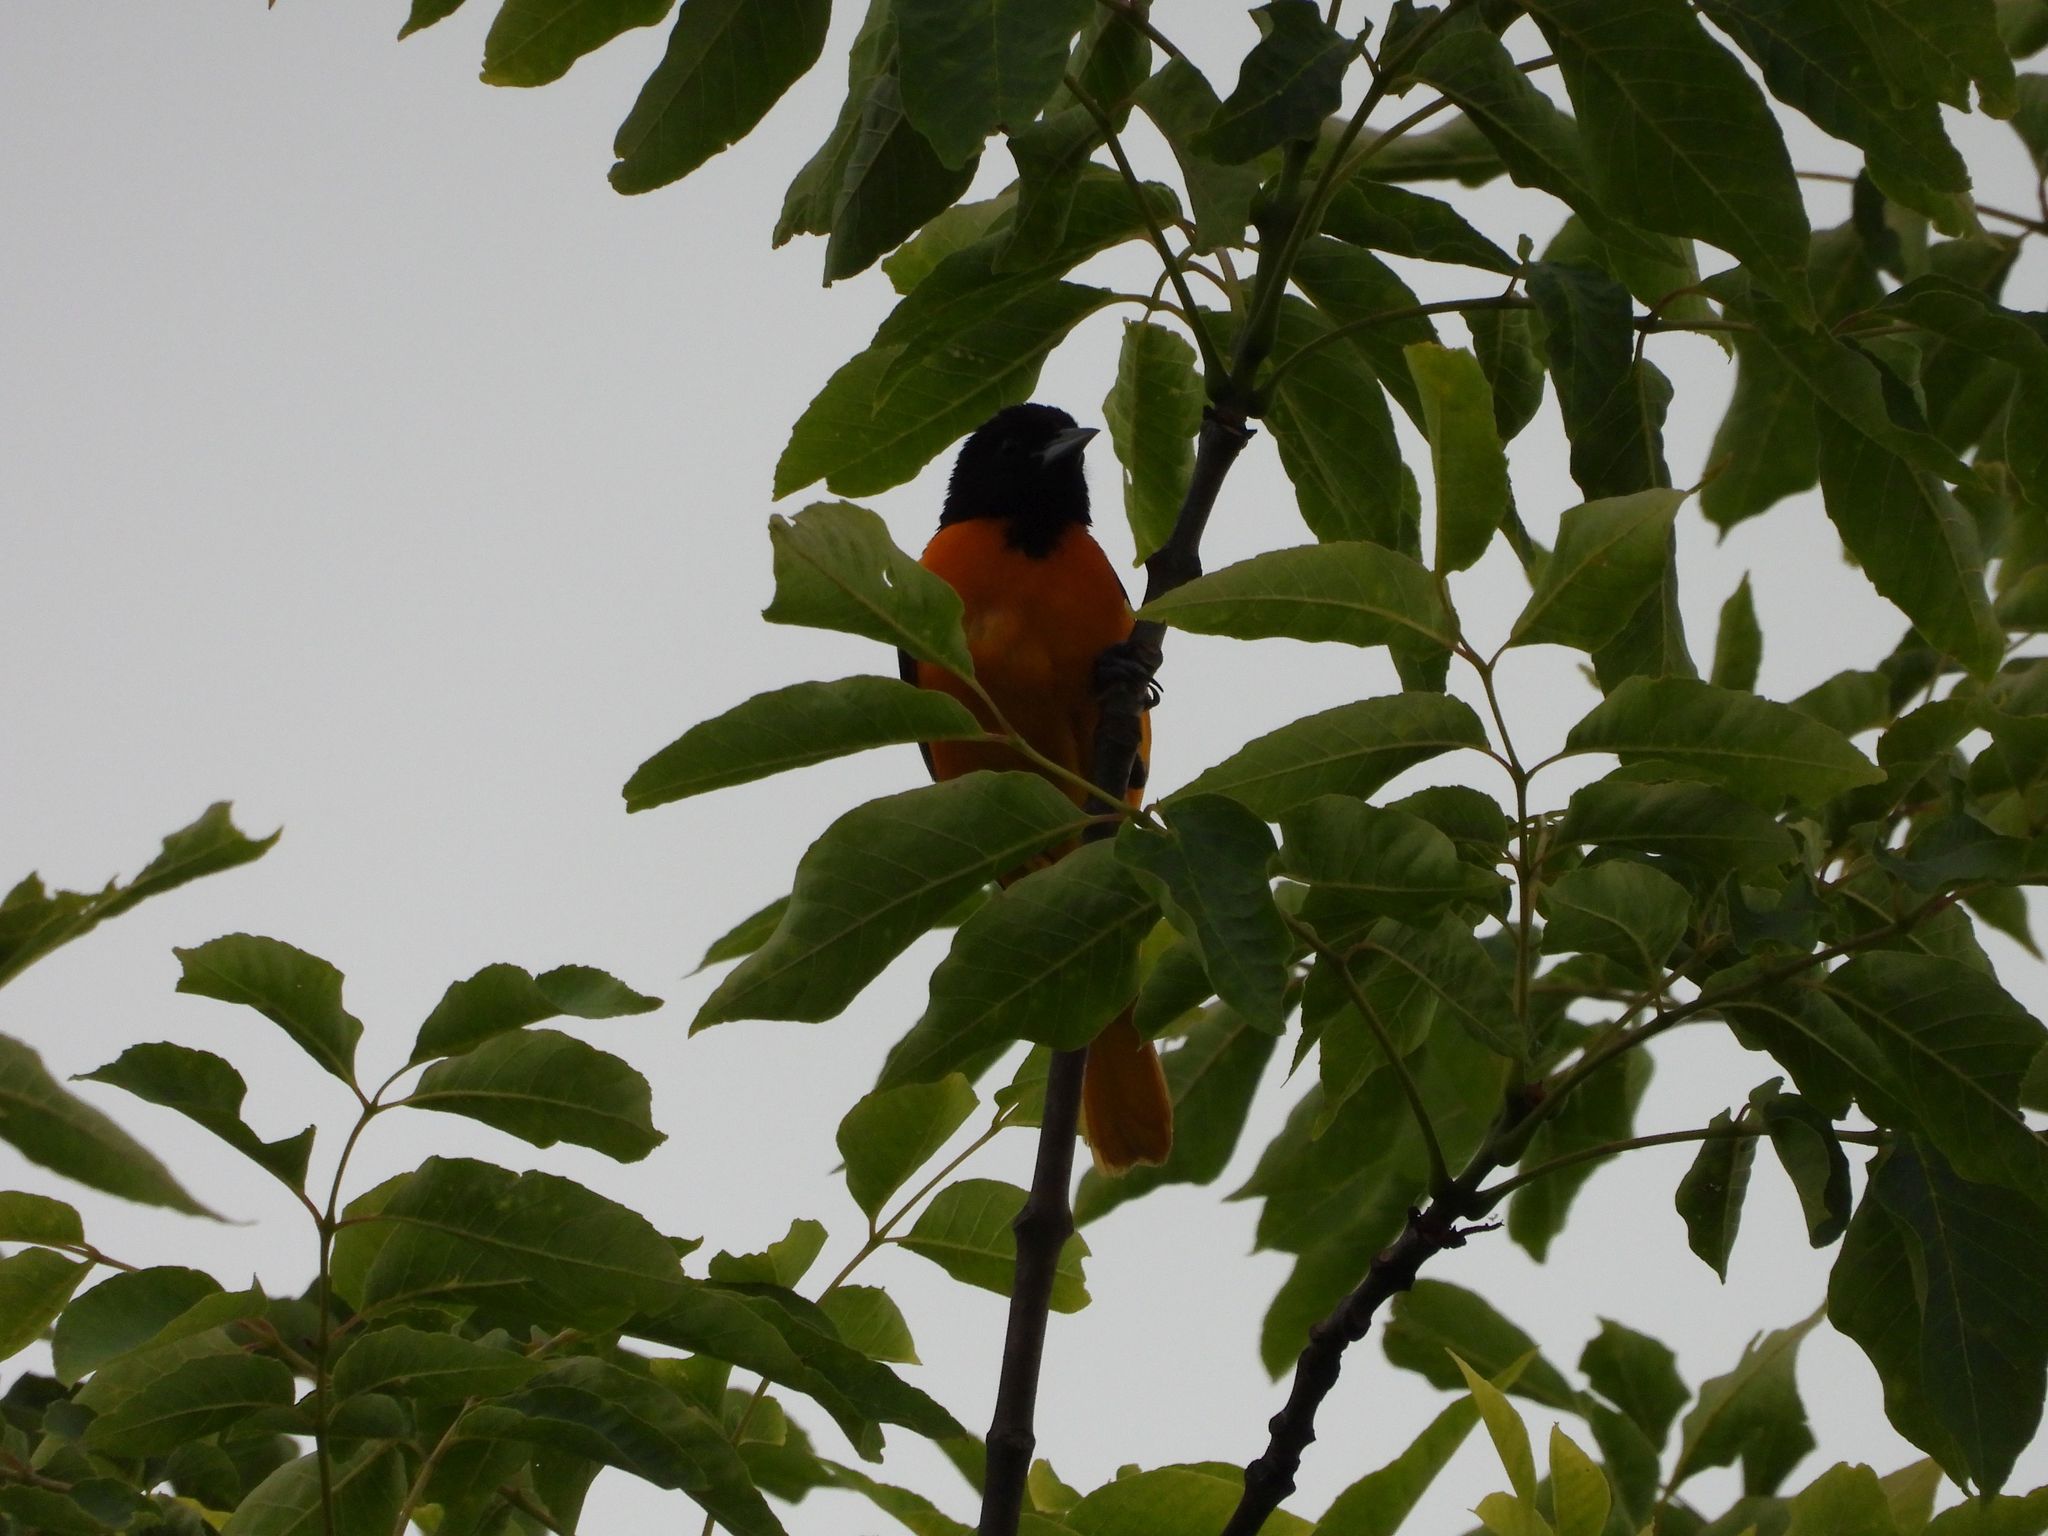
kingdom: Animalia
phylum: Chordata
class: Aves
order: Passeriformes
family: Icteridae
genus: Icterus
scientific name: Icterus galbula
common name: Baltimore oriole
